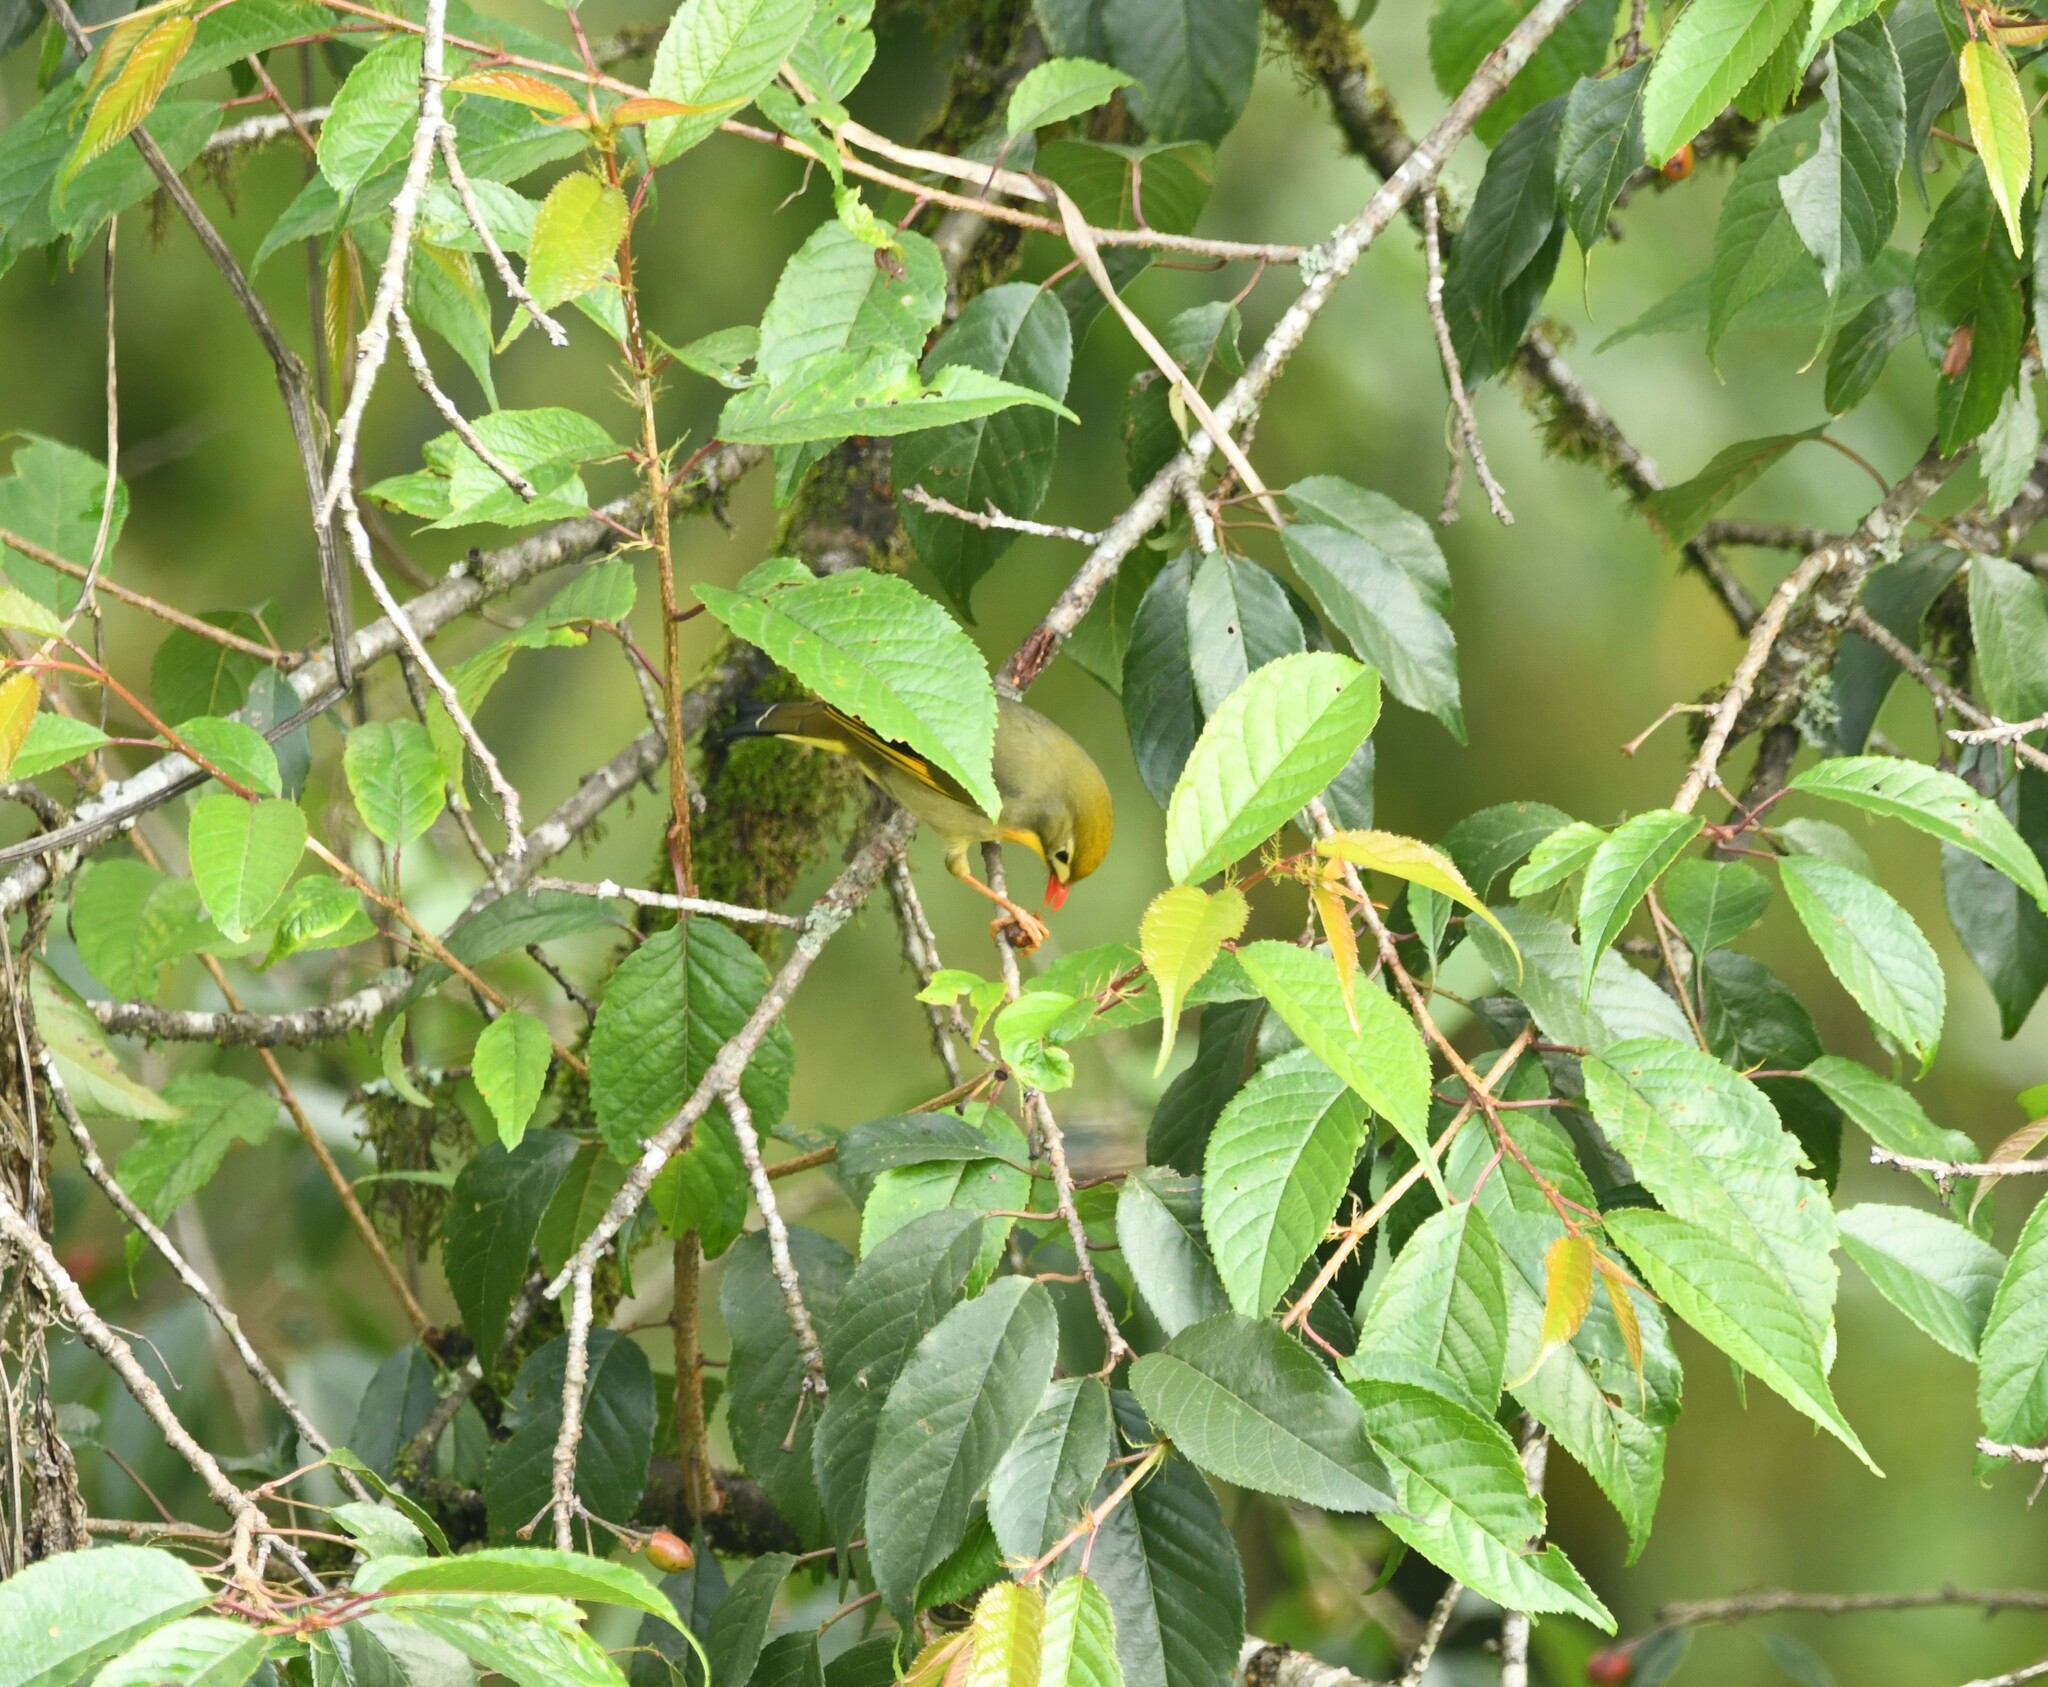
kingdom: Animalia
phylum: Chordata
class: Aves
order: Passeriformes
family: Leiothrichidae
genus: Leiothrix
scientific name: Leiothrix lutea
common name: Red-billed leiothrix
